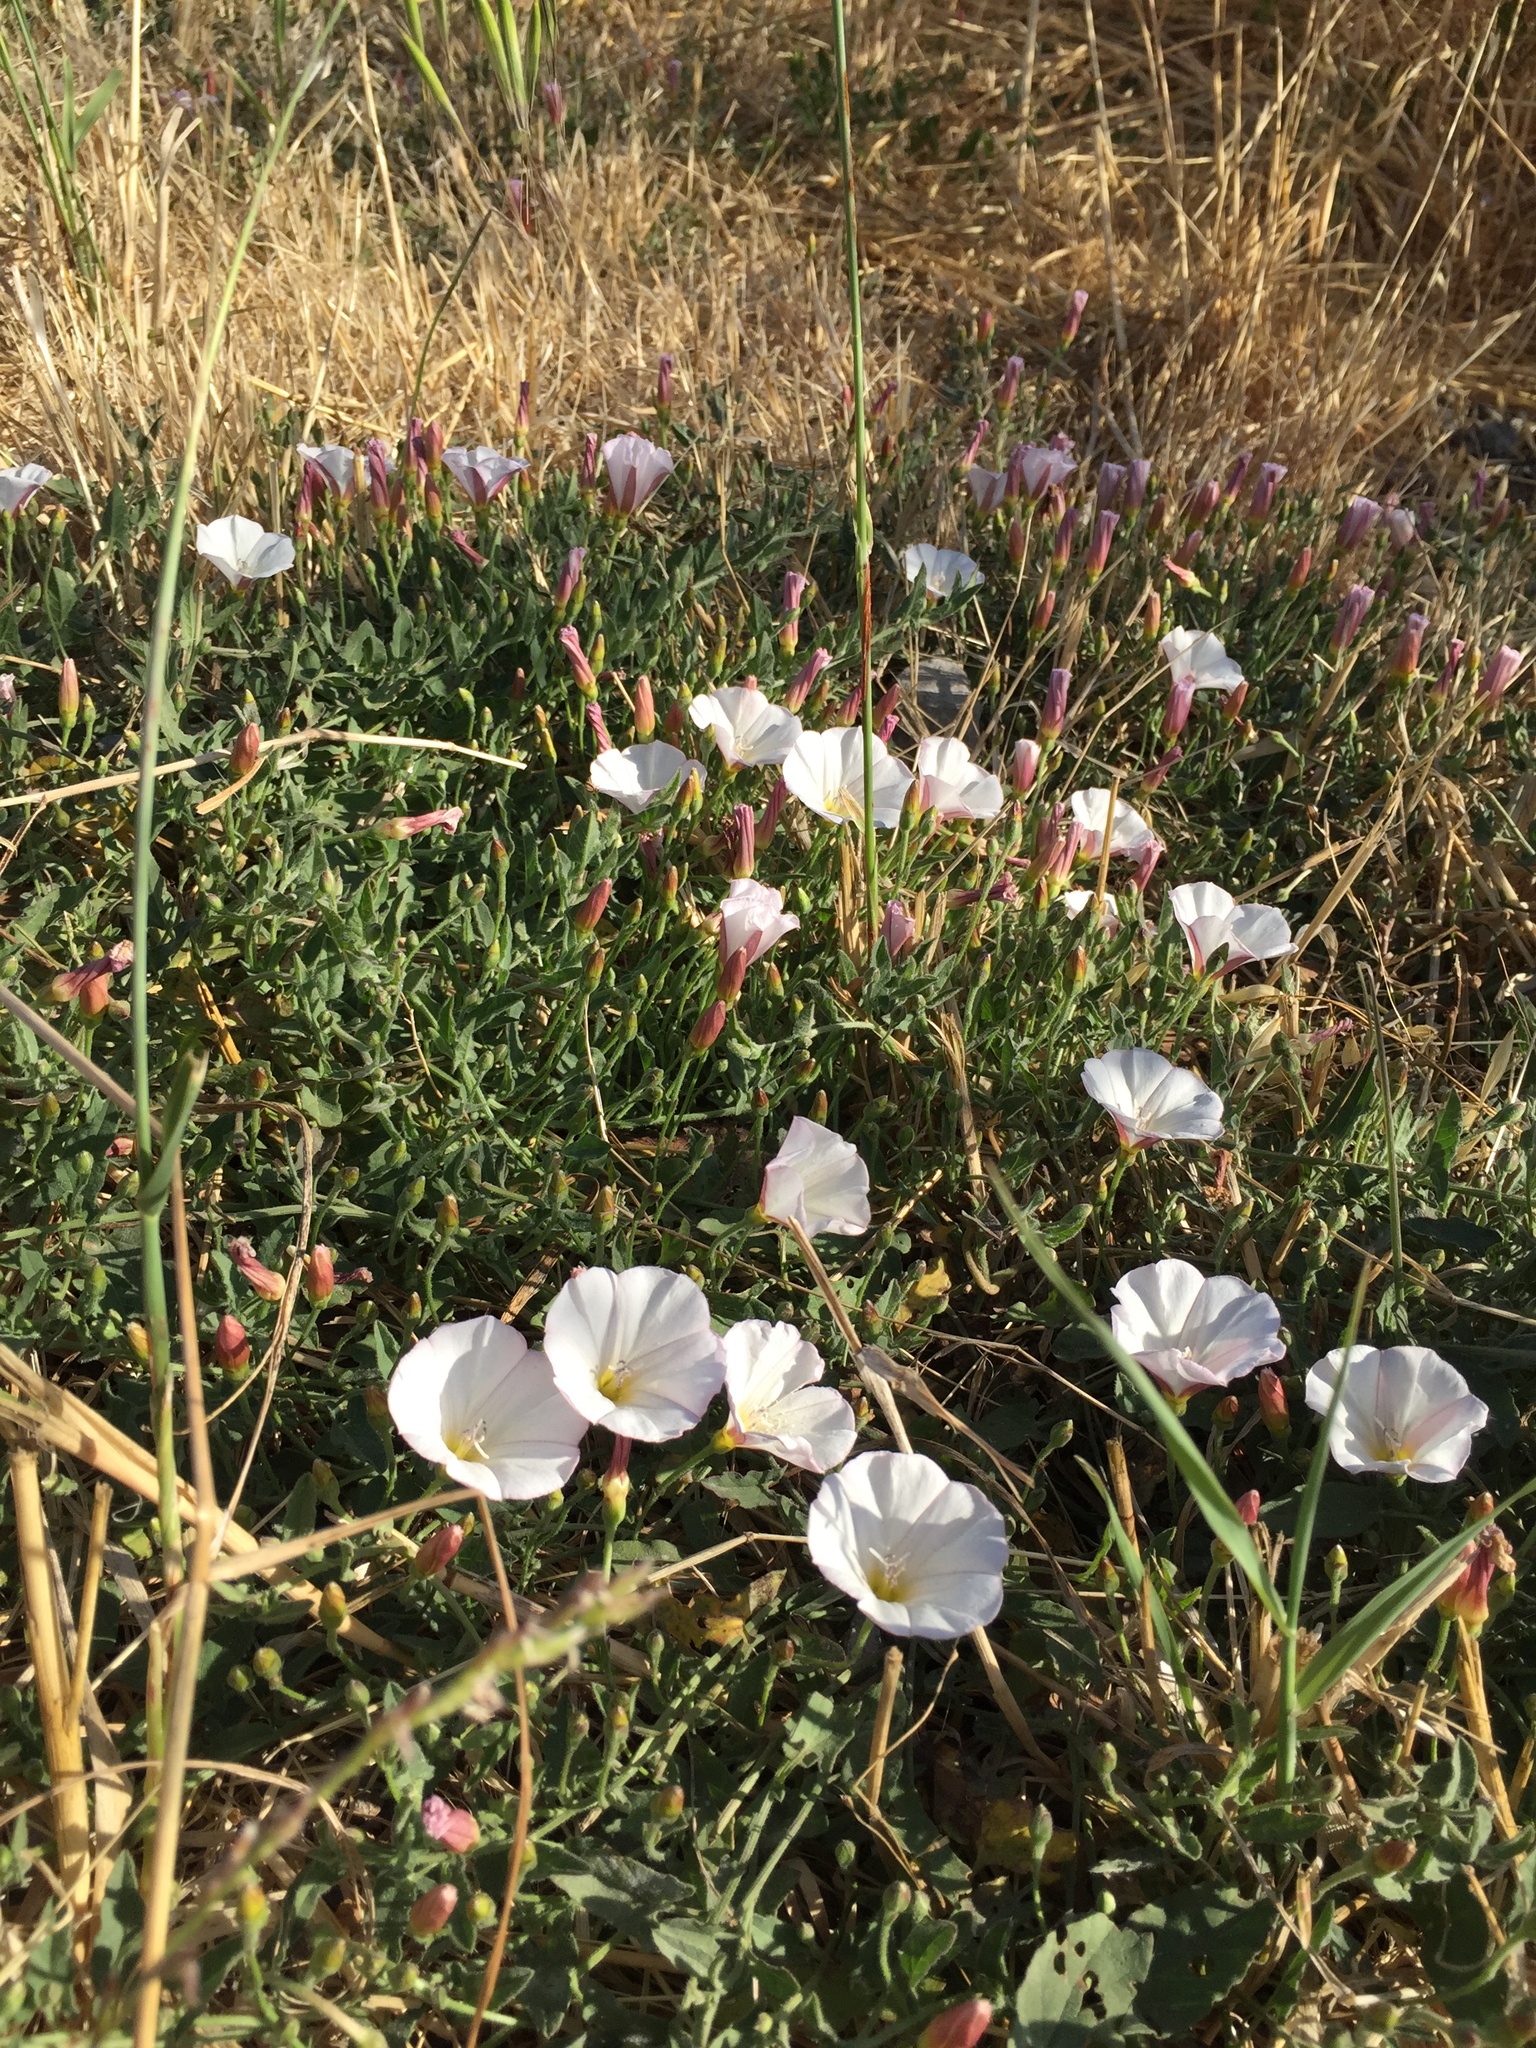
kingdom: Plantae
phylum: Tracheophyta
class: Magnoliopsida
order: Solanales
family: Convolvulaceae
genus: Convolvulus
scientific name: Convolvulus arvensis
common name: Field bindweed
